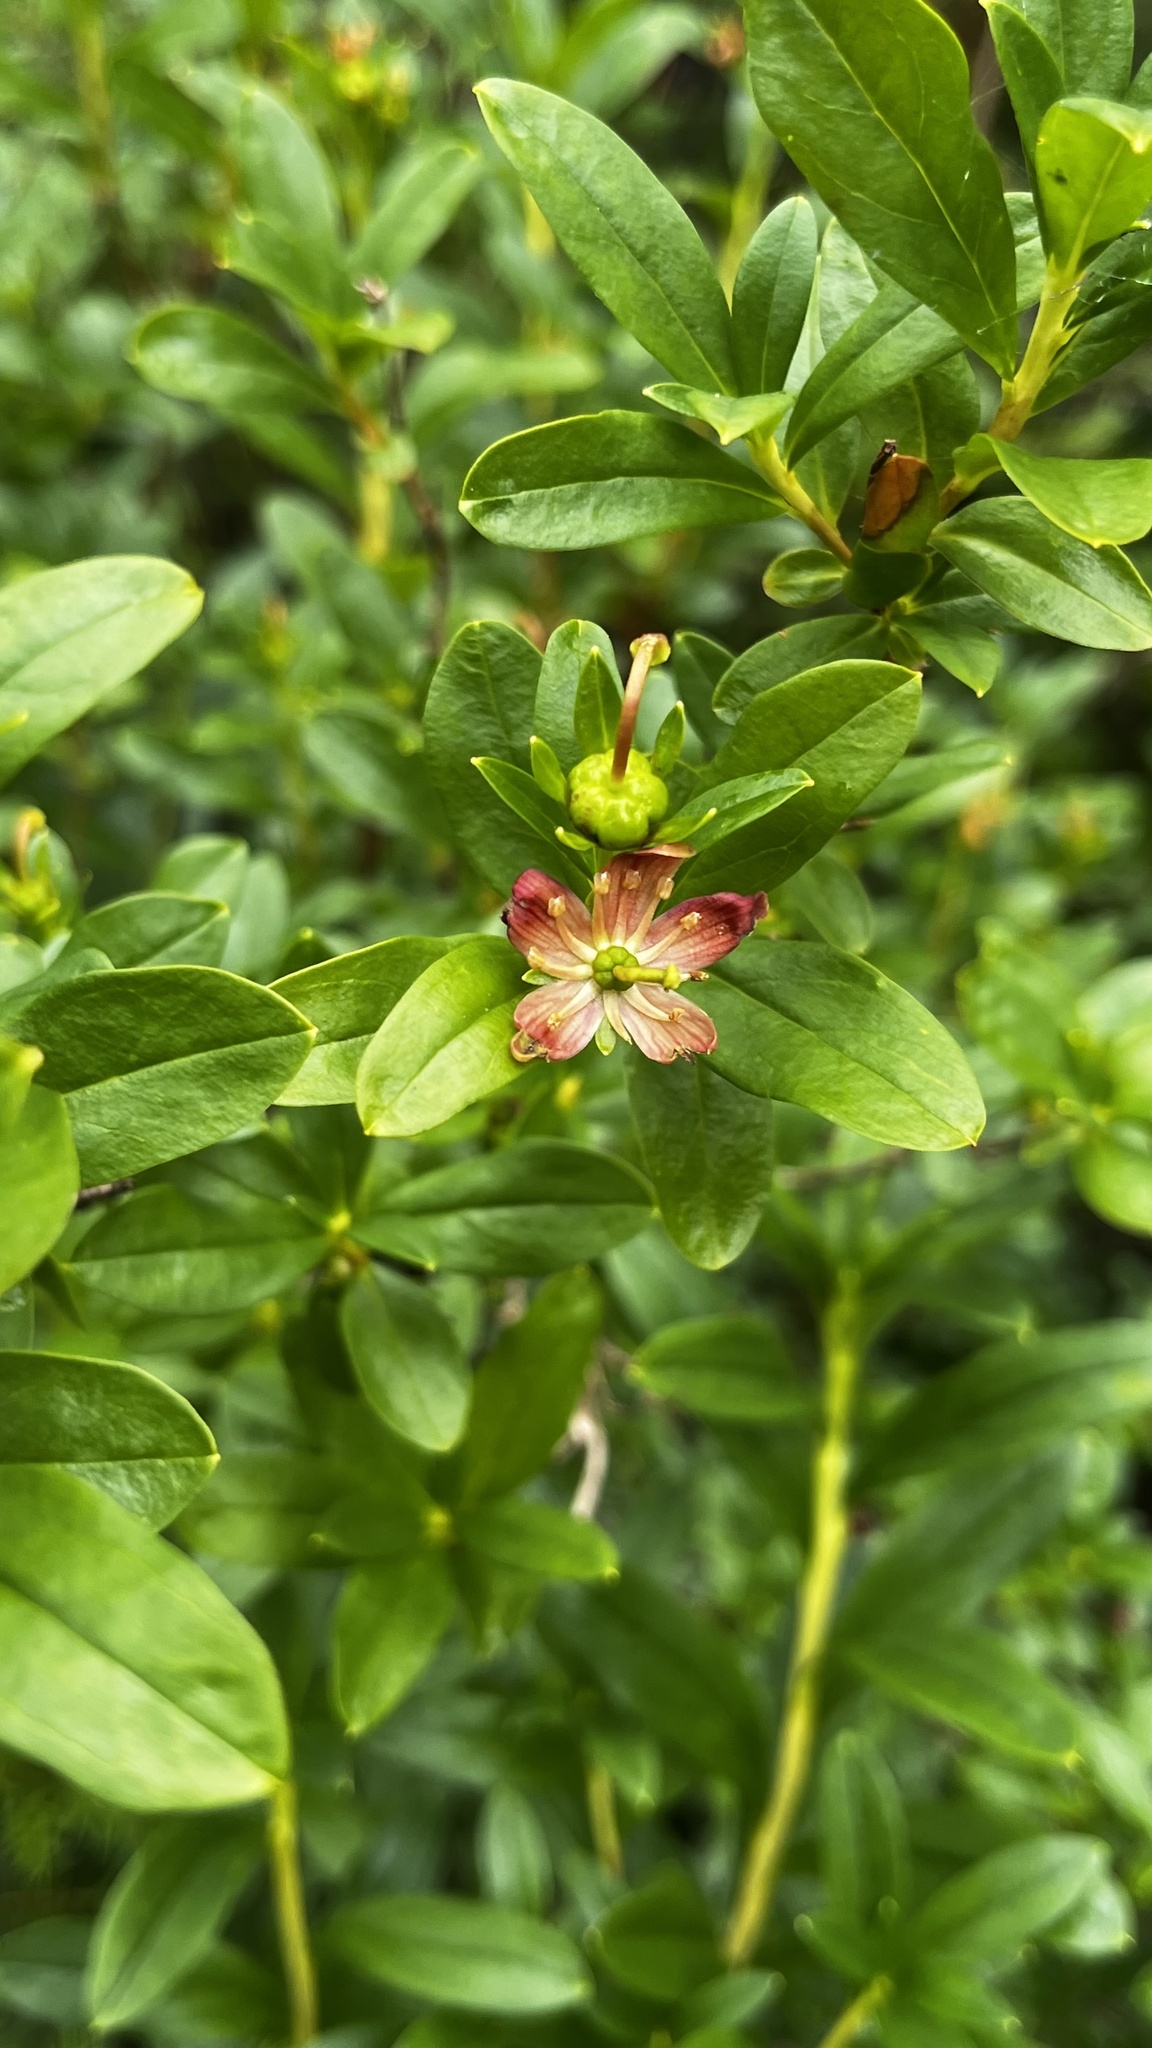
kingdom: Plantae
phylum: Tracheophyta
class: Magnoliopsida
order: Ericales
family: Ericaceae
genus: Elliottia
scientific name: Elliottia pyroliflora
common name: Copperbush
